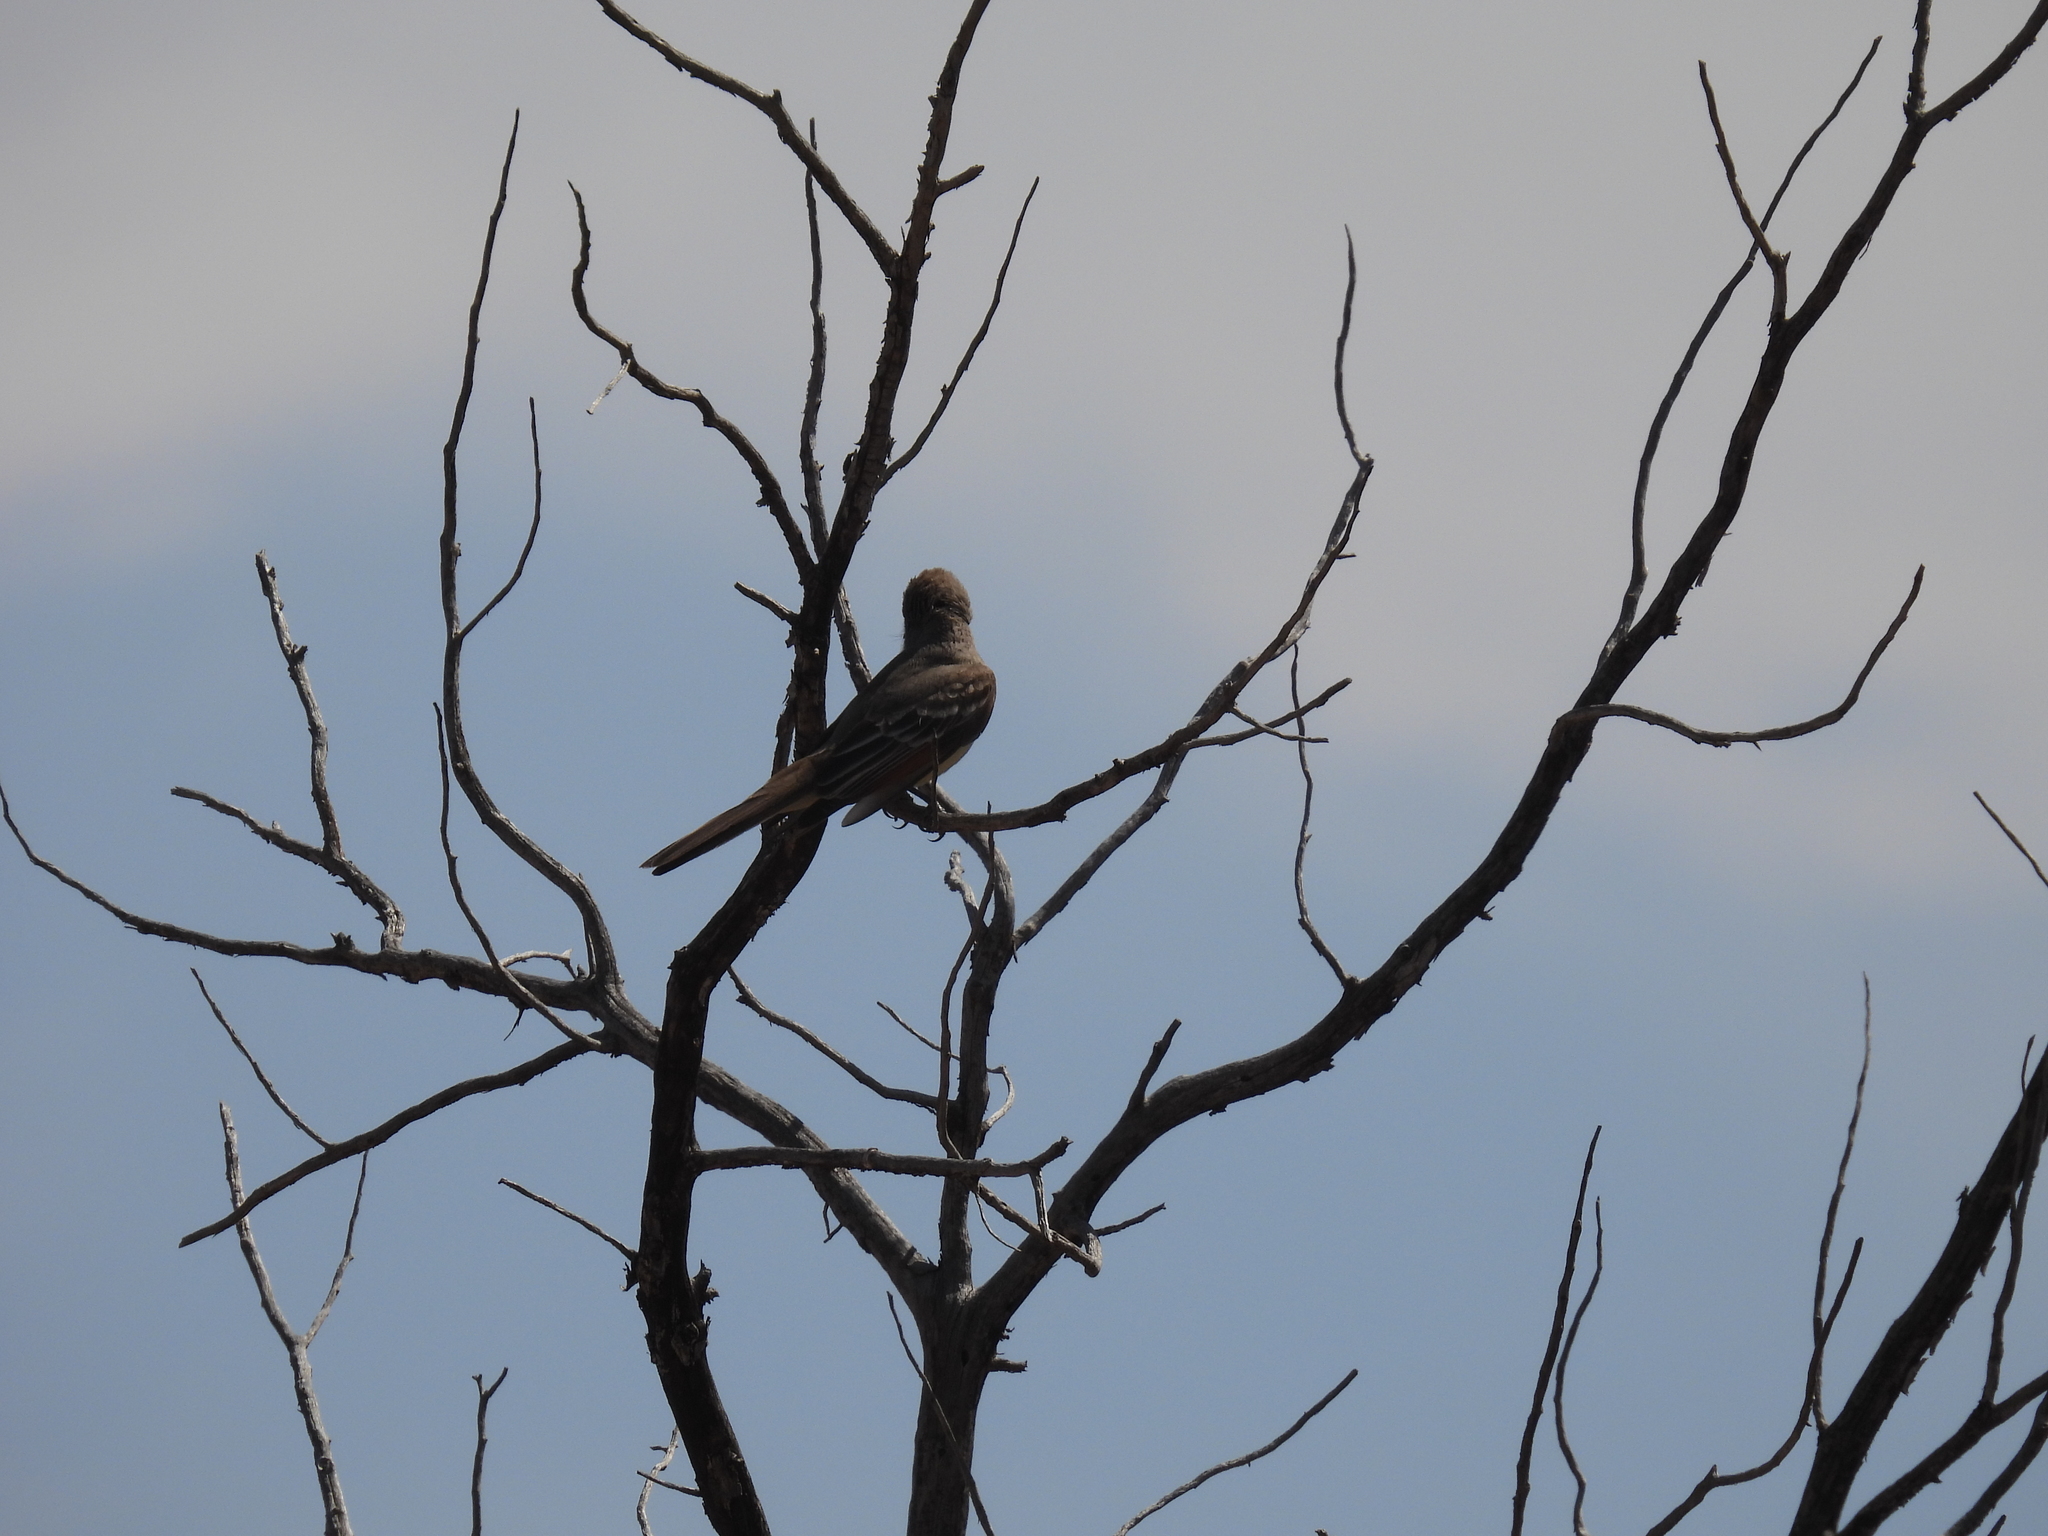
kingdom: Animalia
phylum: Chordata
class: Aves
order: Passeriformes
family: Tyrannidae
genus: Myiarchus
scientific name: Myiarchus cinerascens
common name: Ash-throated flycatcher
